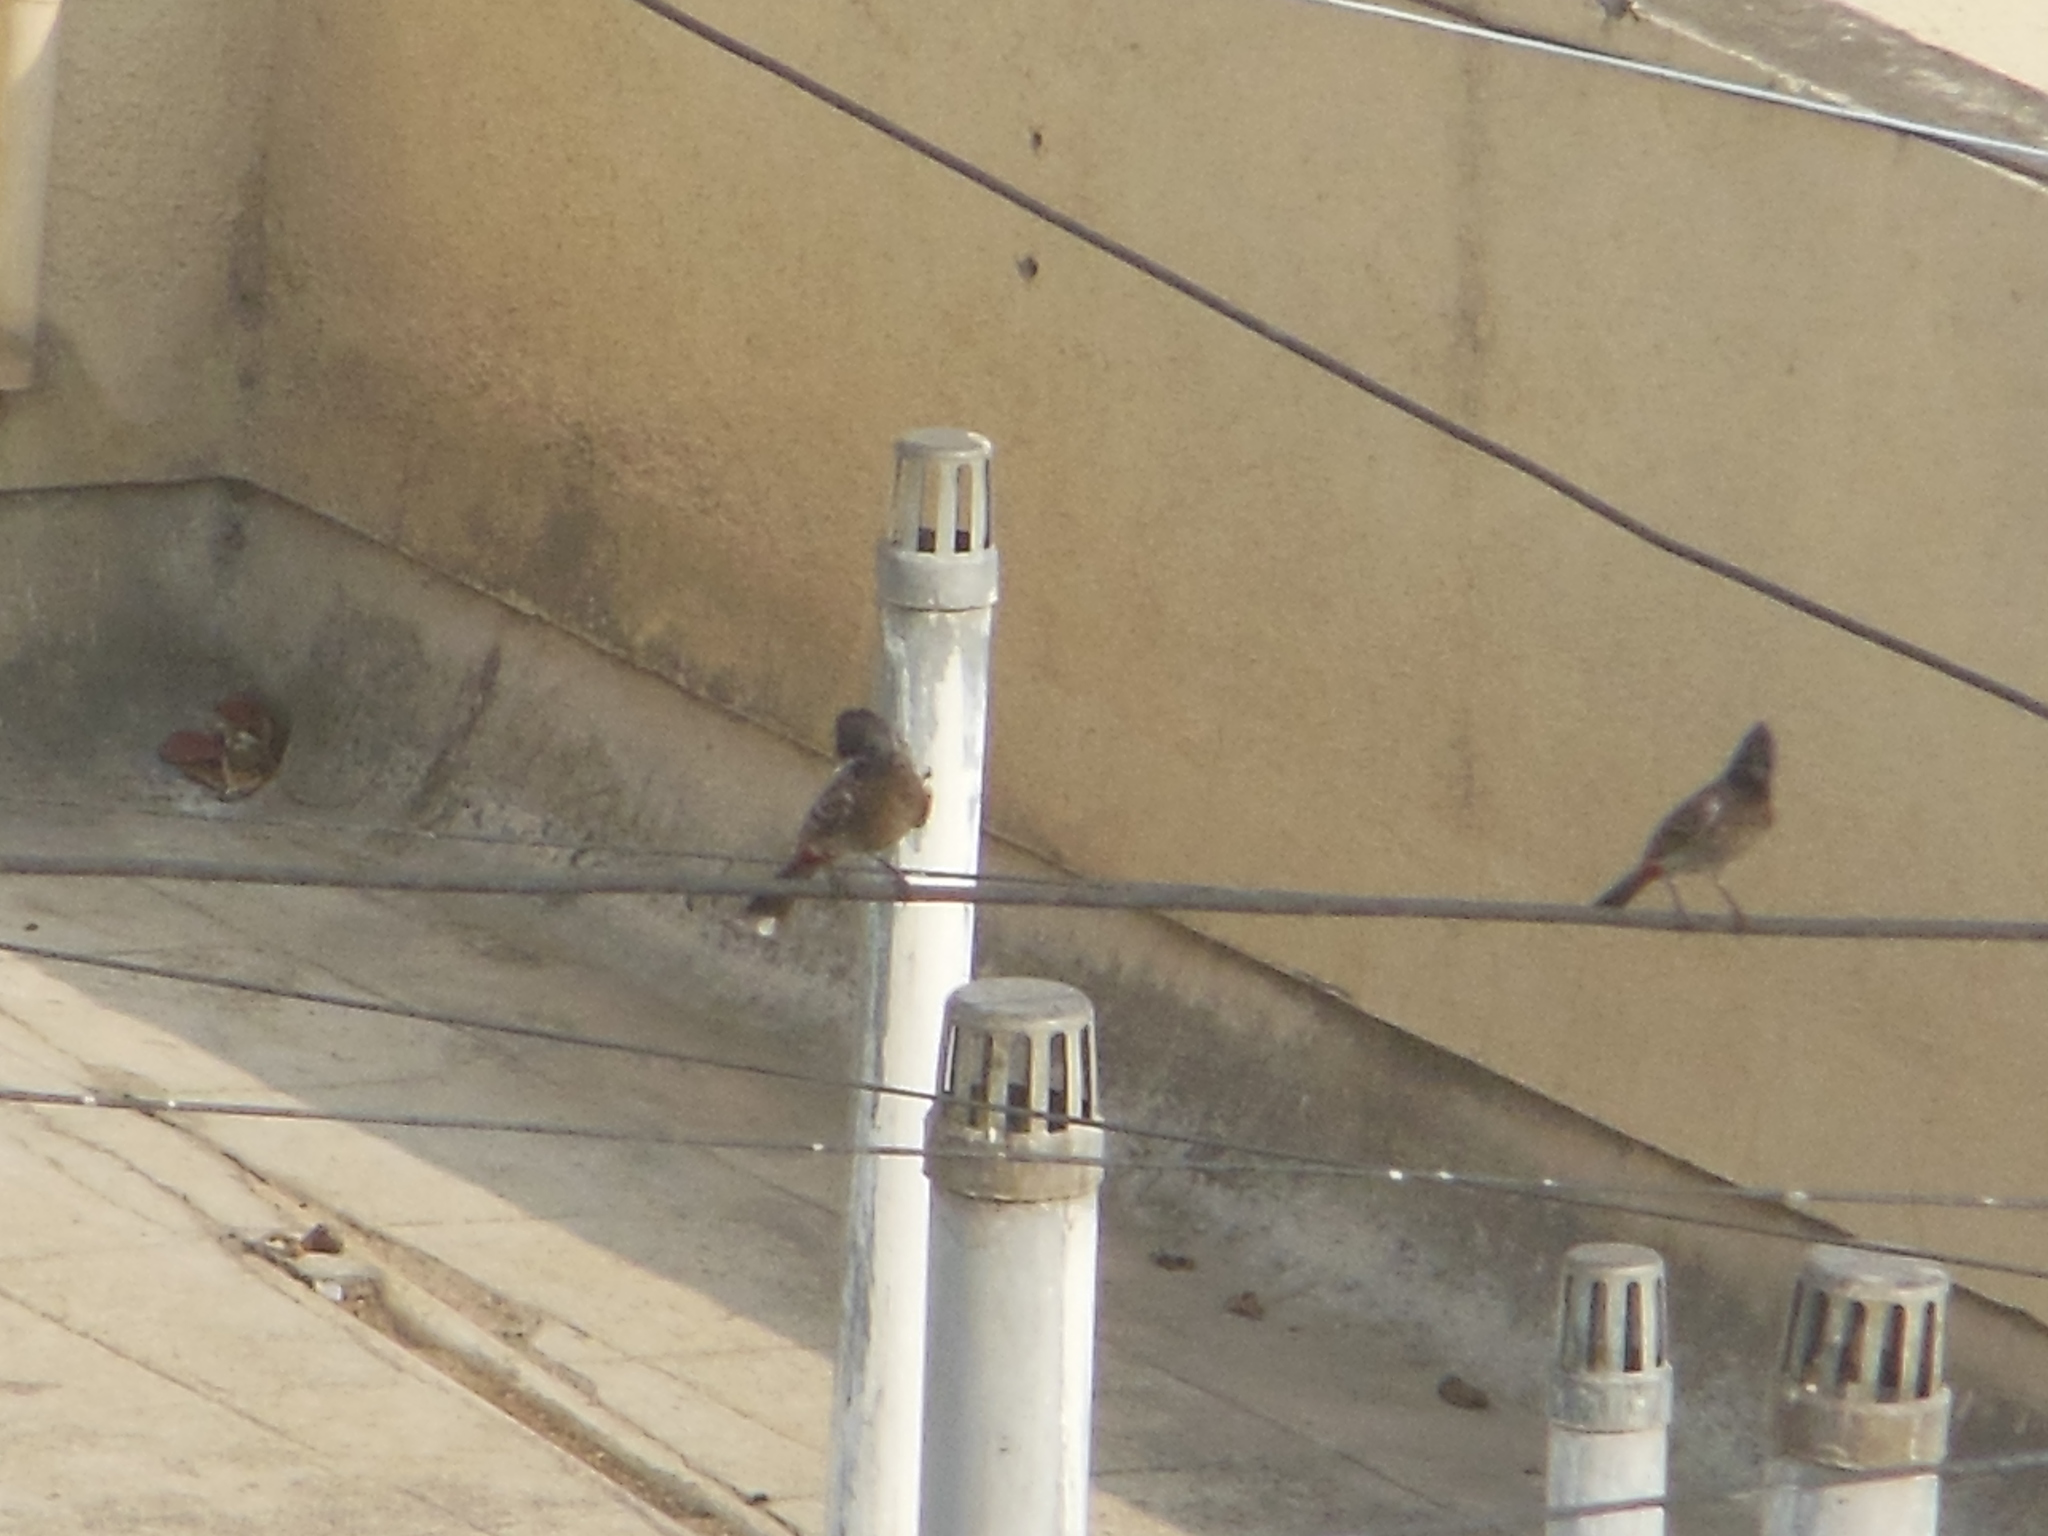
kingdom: Animalia
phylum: Chordata
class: Aves
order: Passeriformes
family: Pycnonotidae
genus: Pycnonotus
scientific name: Pycnonotus cafer
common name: Red-vented bulbul
